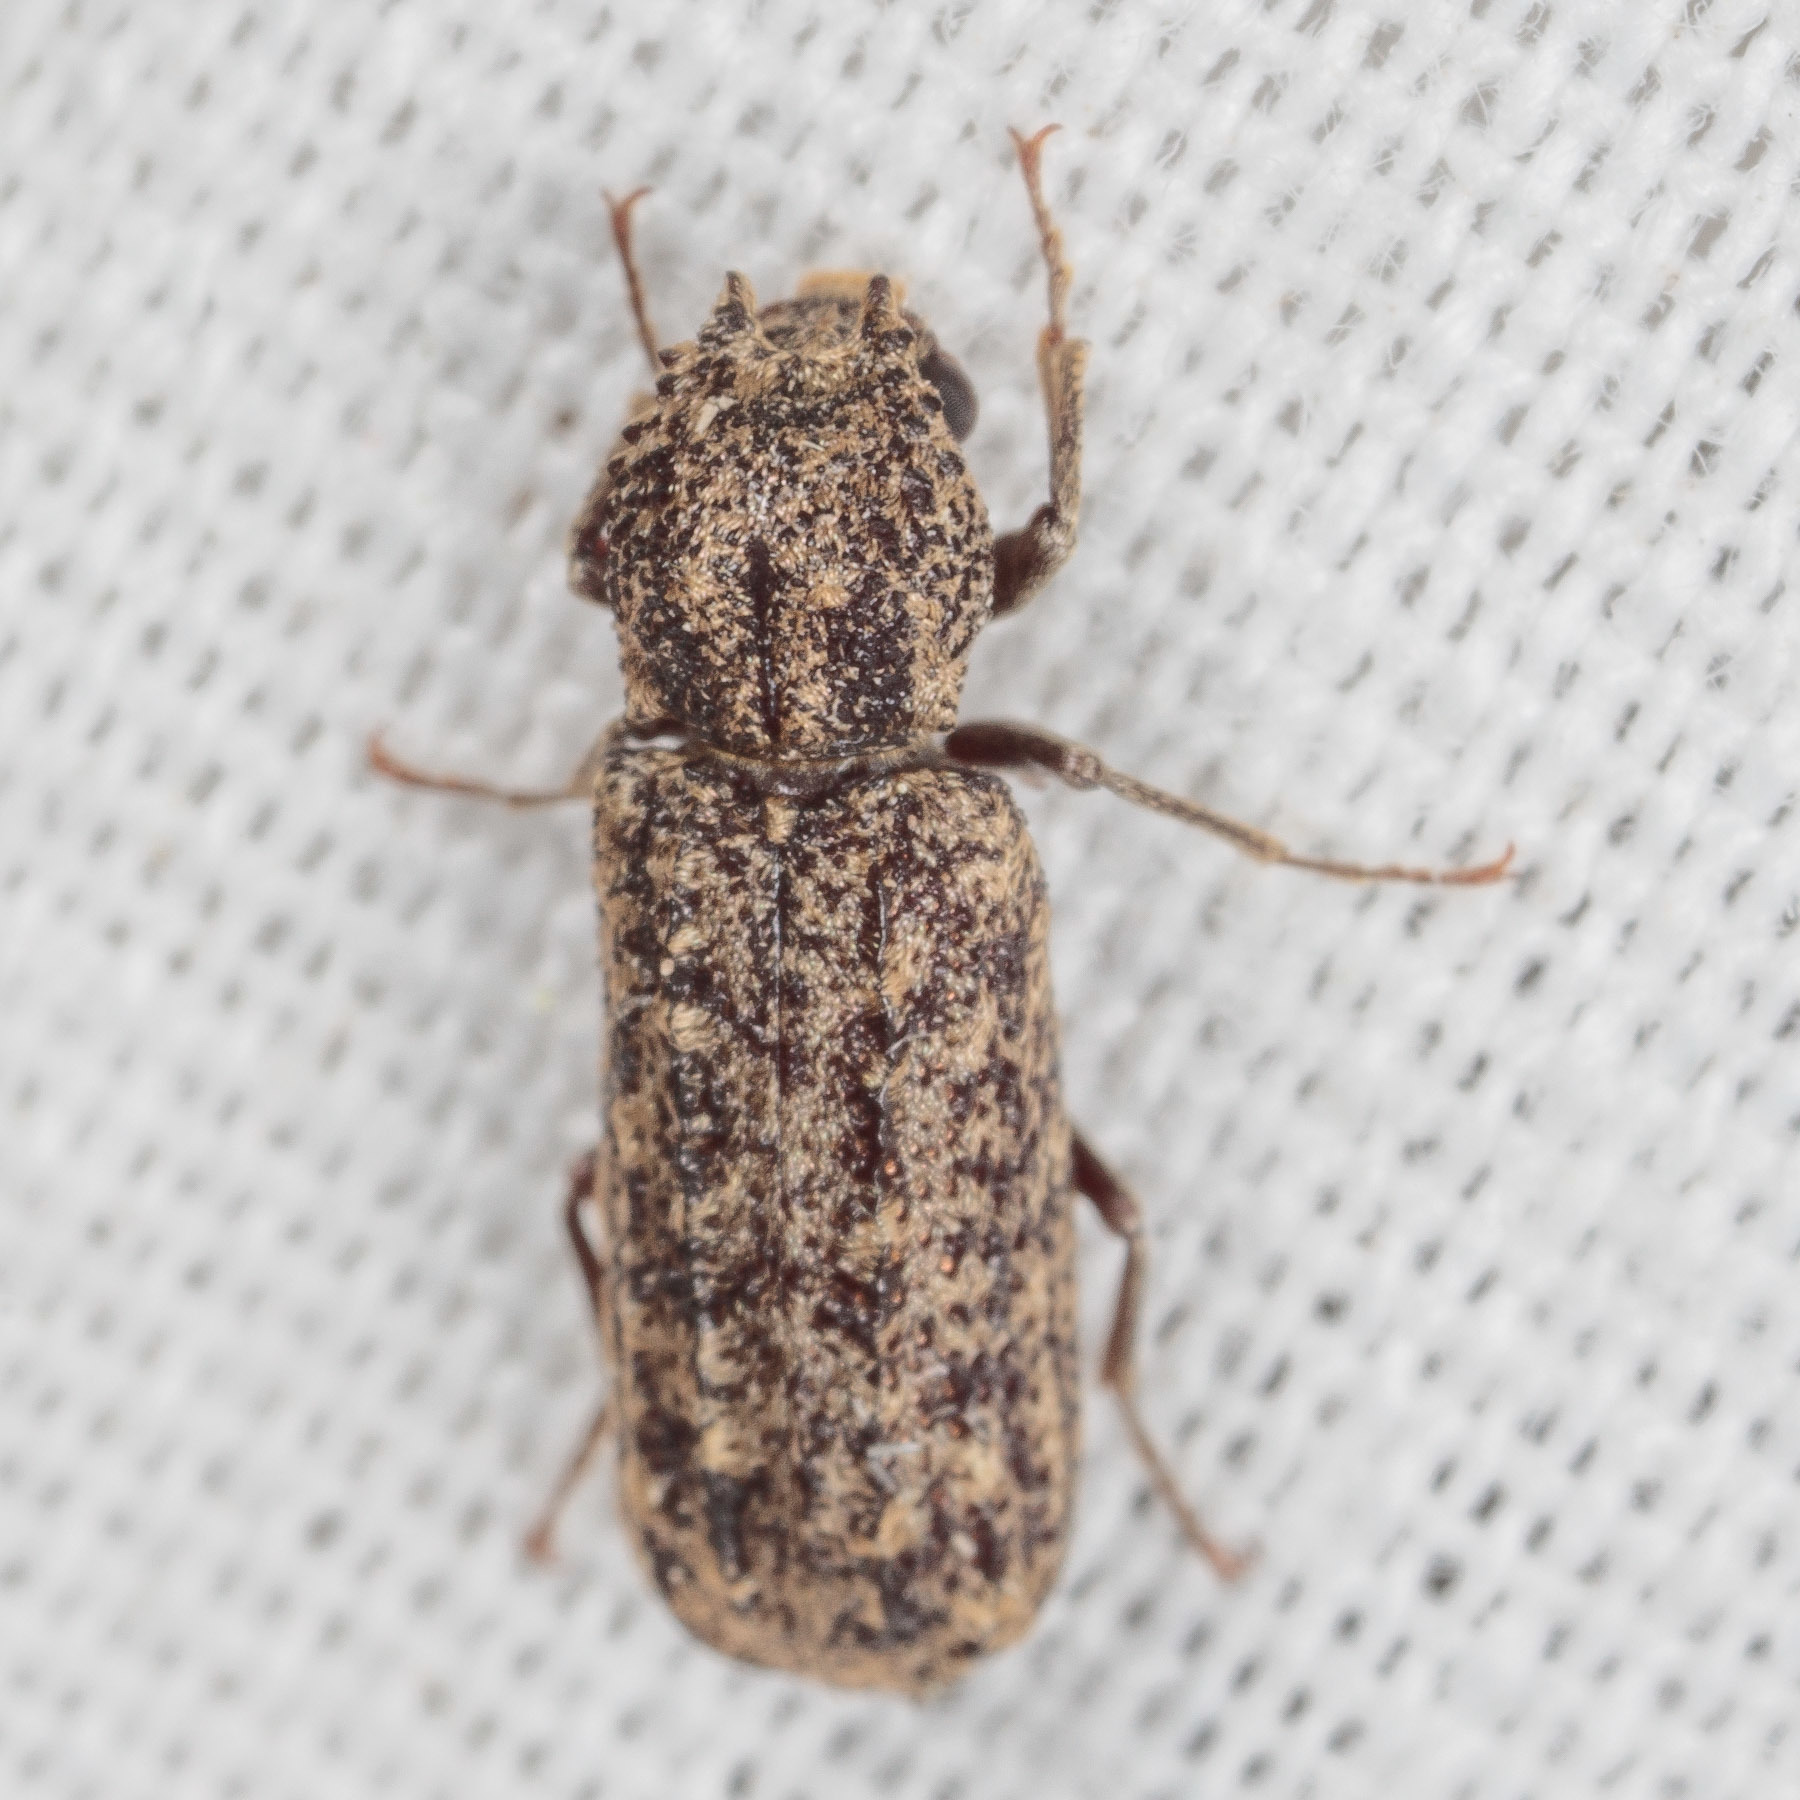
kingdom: Animalia
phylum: Arthropoda
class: Insecta
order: Coleoptera
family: Bostrichidae
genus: Lichenophanes
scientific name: Lichenophanes bicornis
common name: Two-horned powder-post beetle
